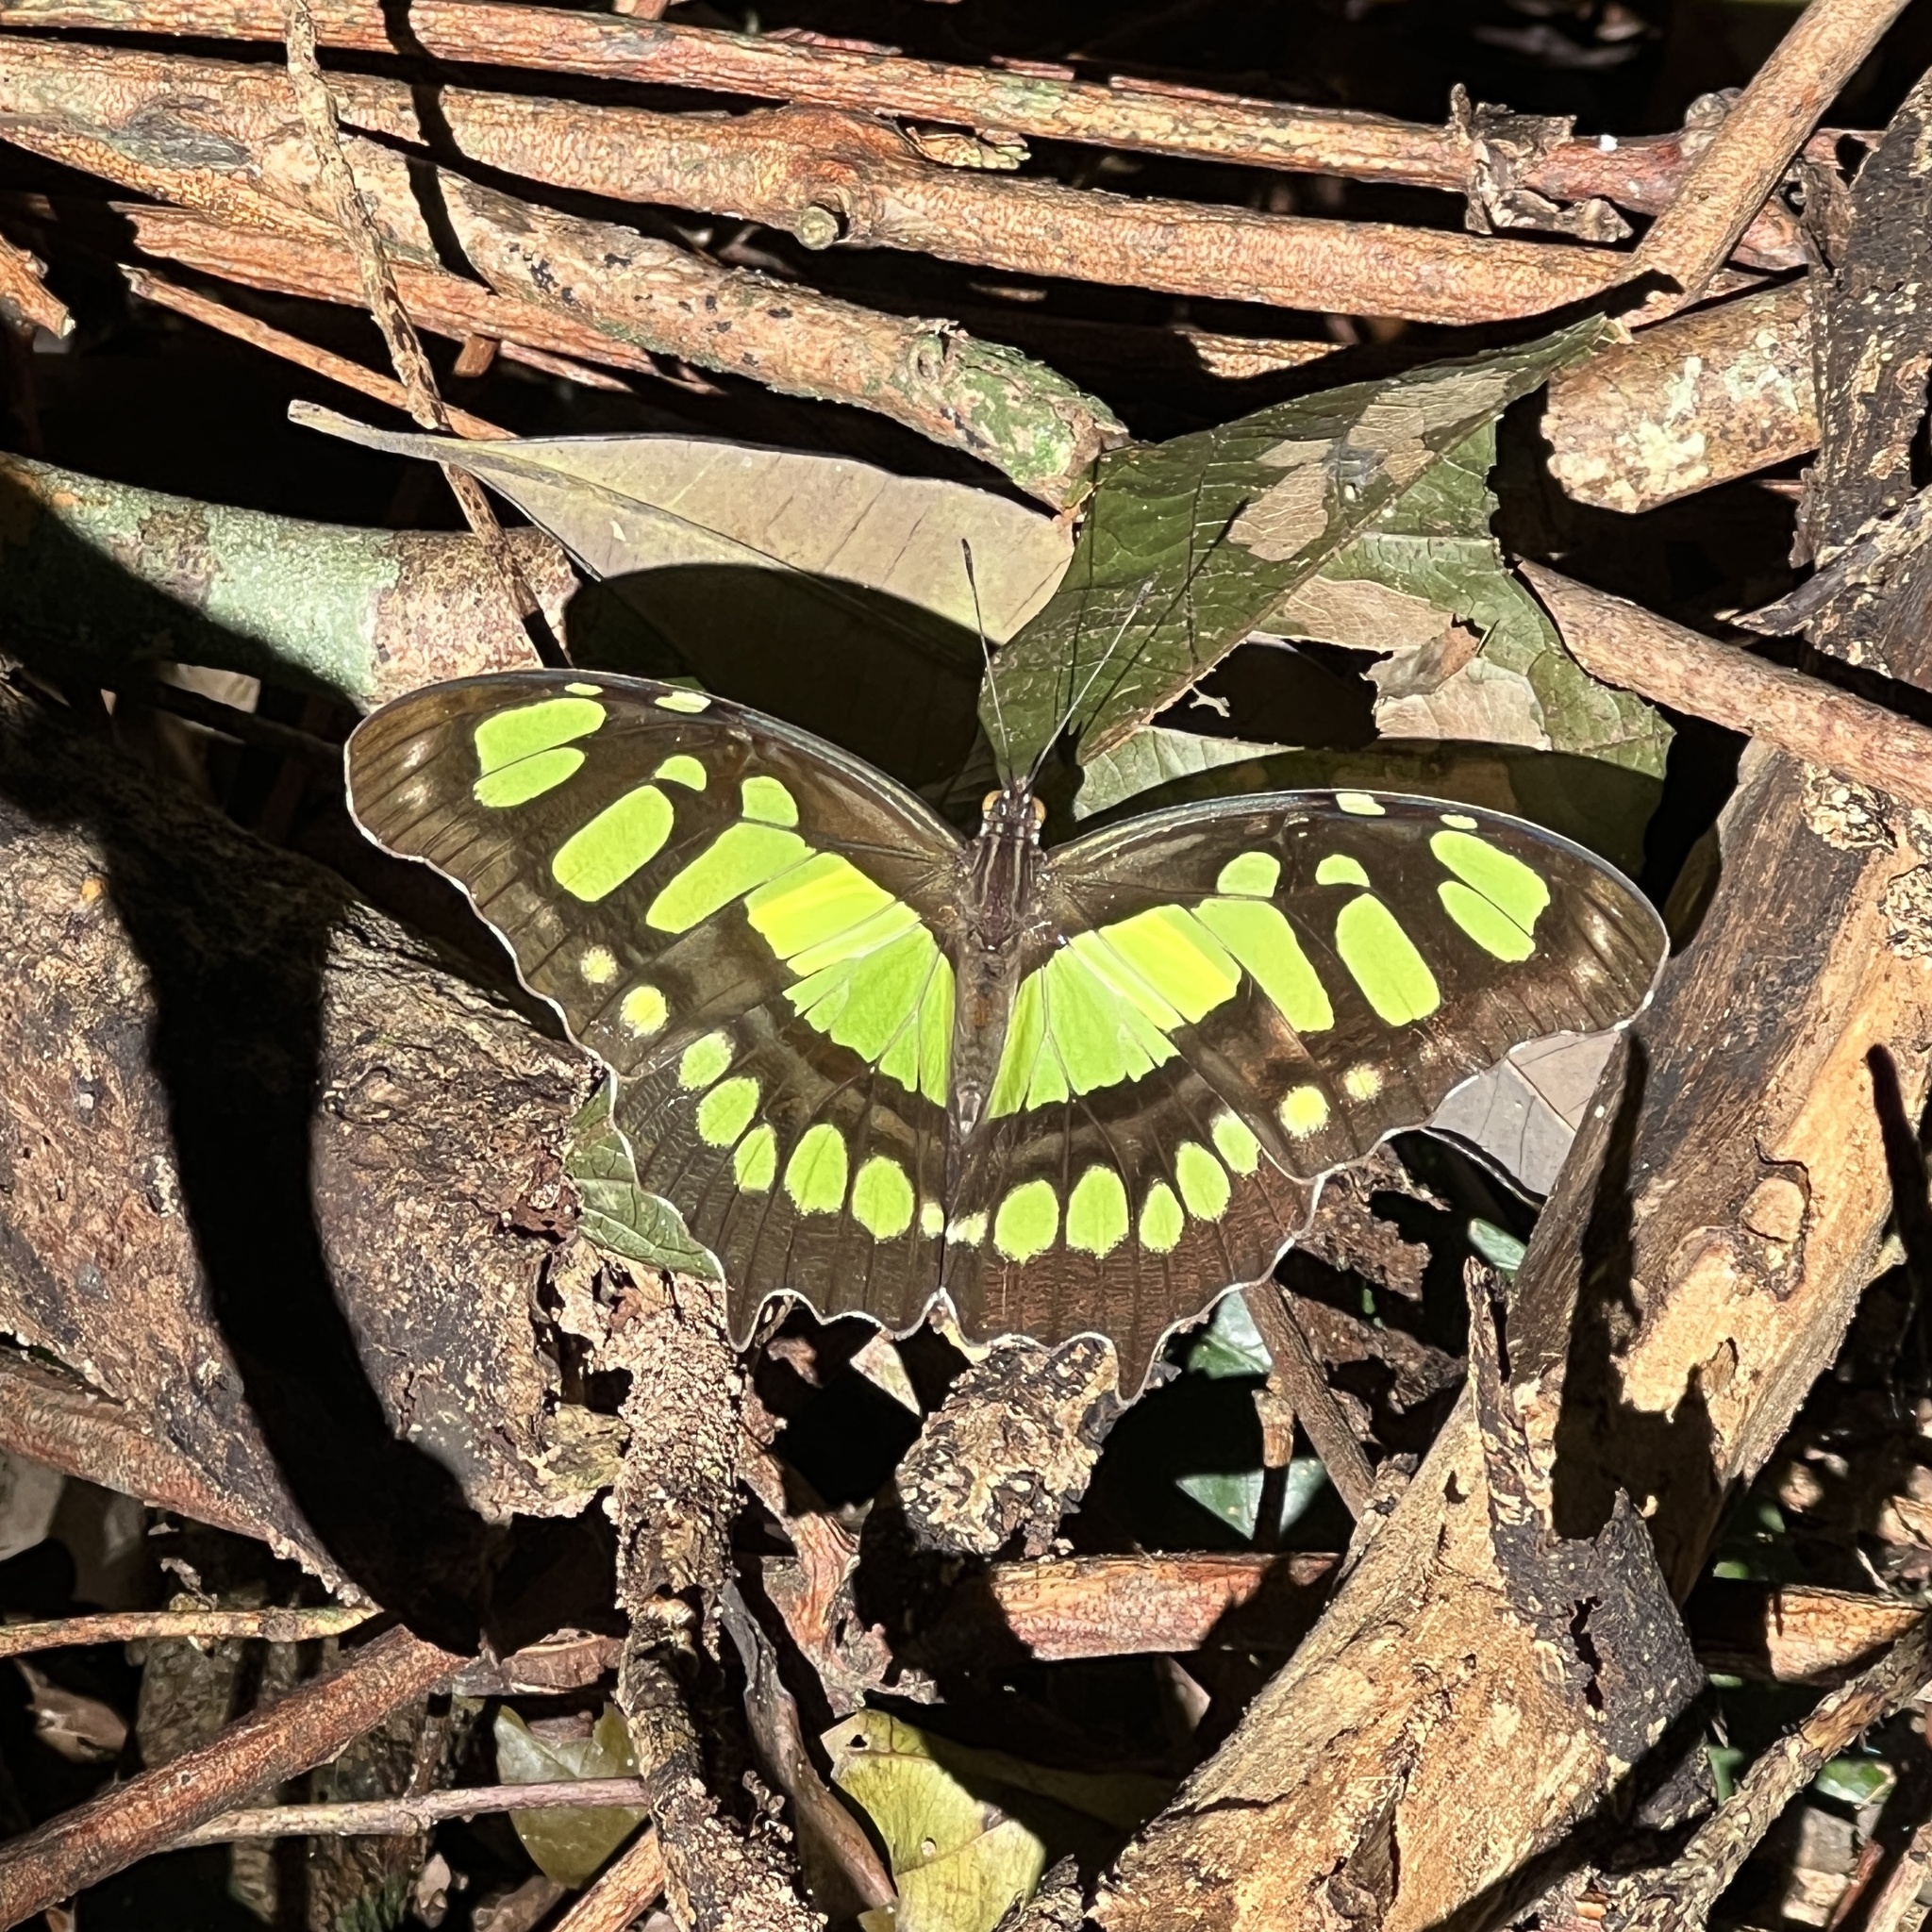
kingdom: Animalia
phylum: Arthropoda
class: Insecta
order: Lepidoptera
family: Nymphalidae
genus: Siproeta
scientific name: Siproeta stelenes
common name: Malachite
